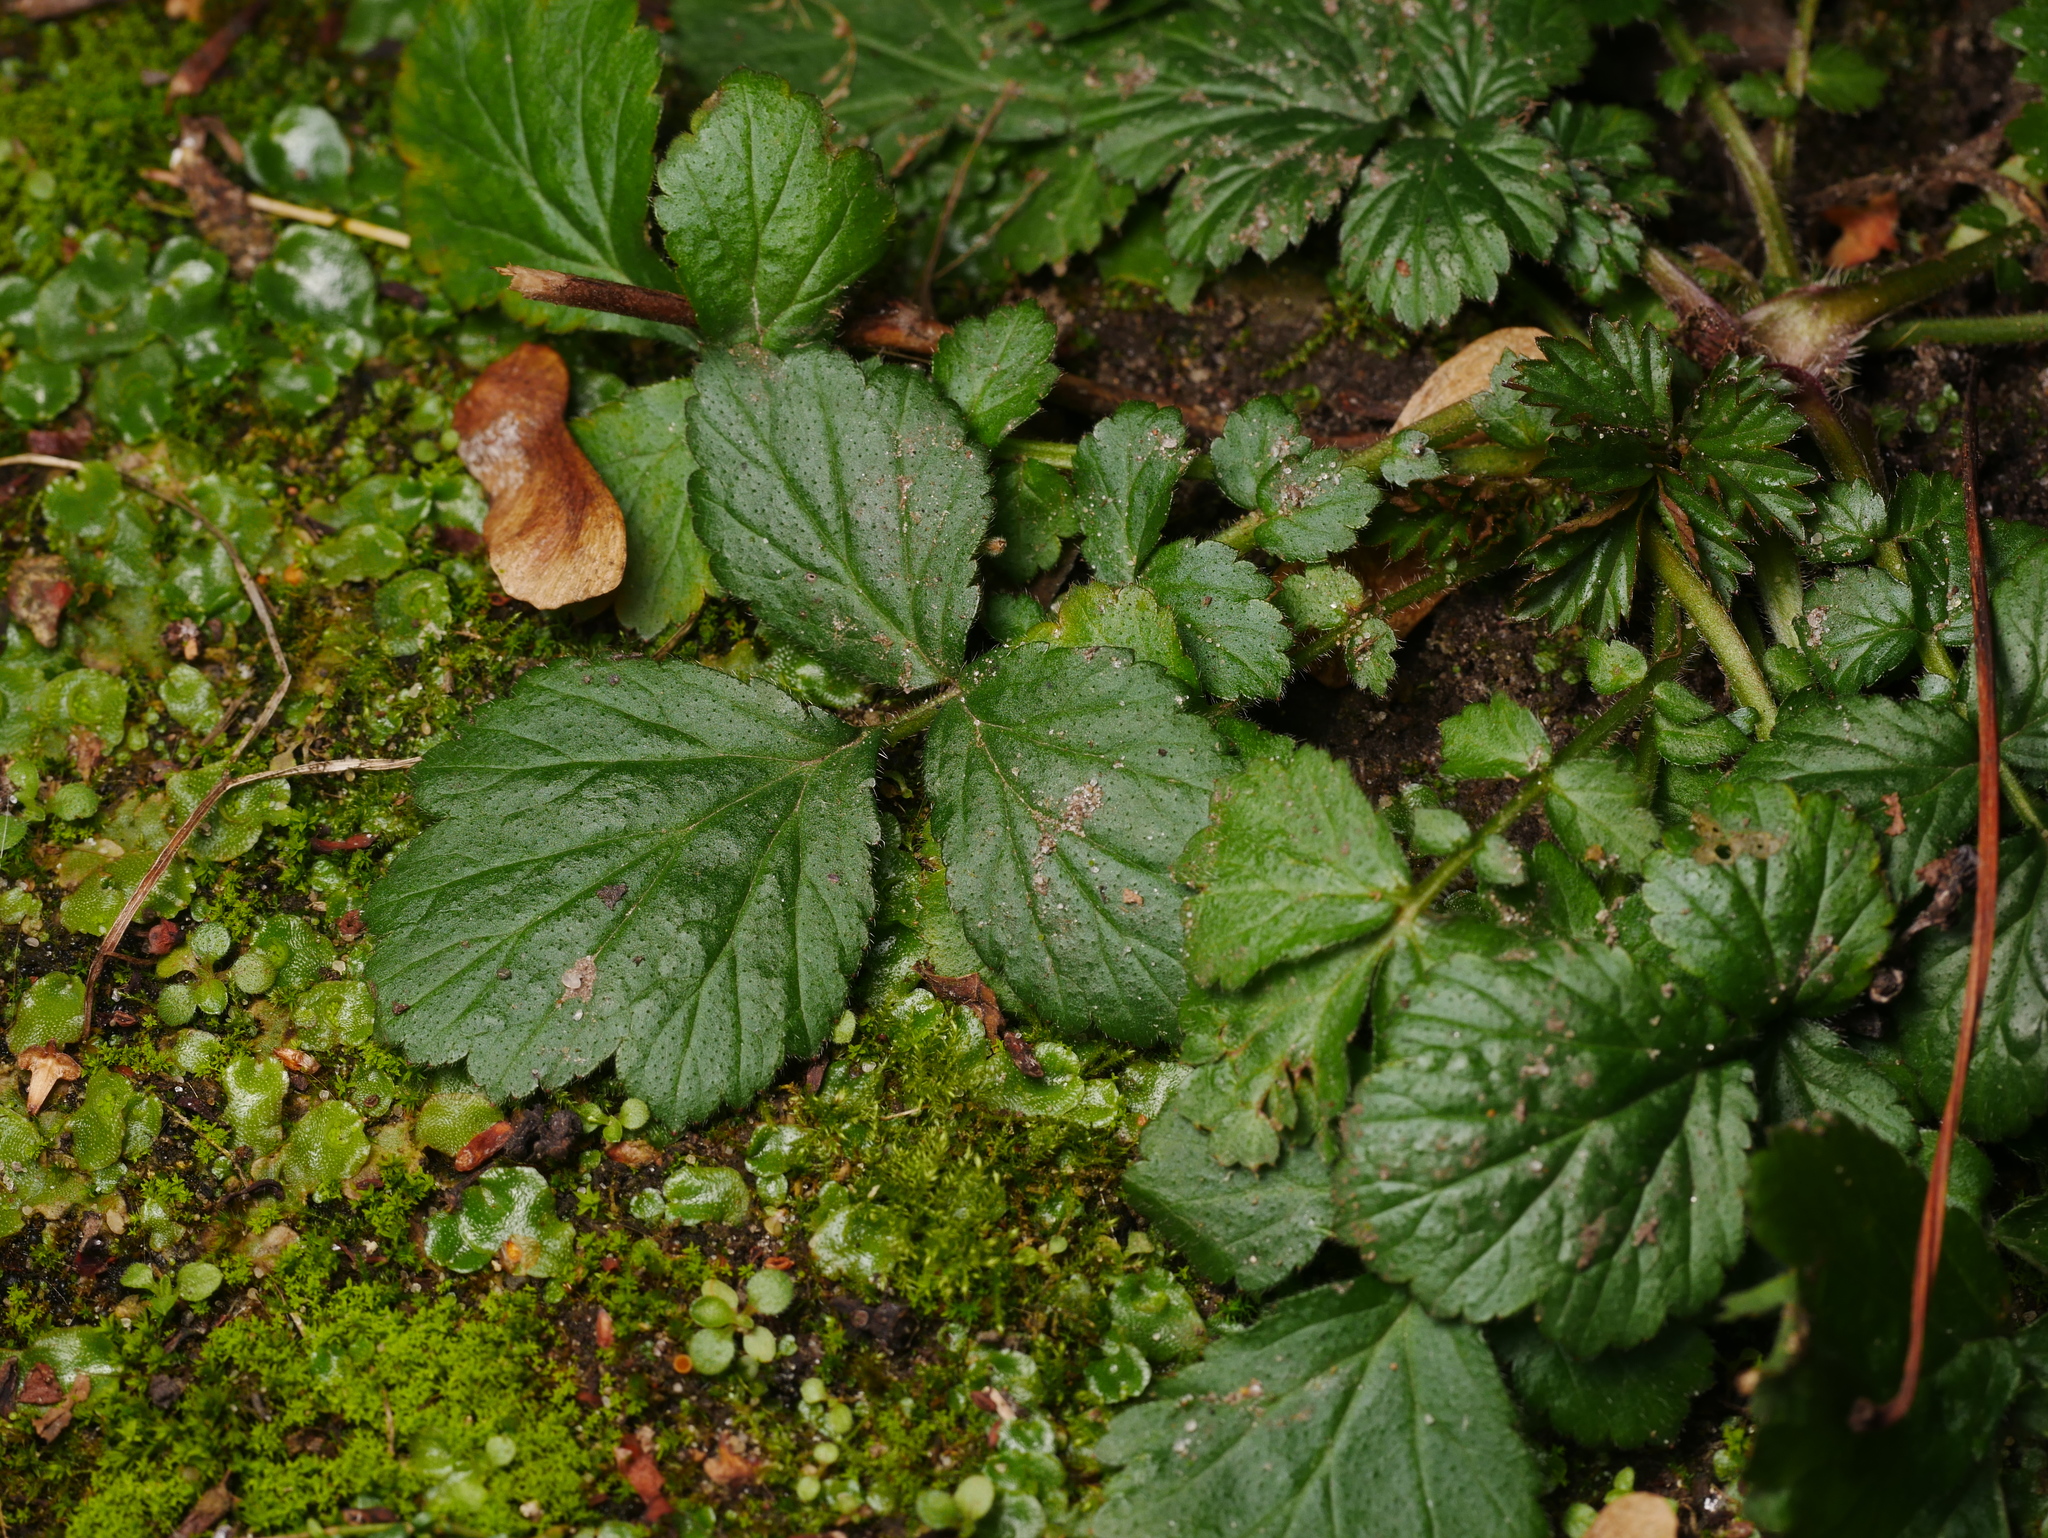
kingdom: Plantae
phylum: Tracheophyta
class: Magnoliopsida
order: Rosales
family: Rosaceae
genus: Geum
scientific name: Geum urbanum
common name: Wood avens
